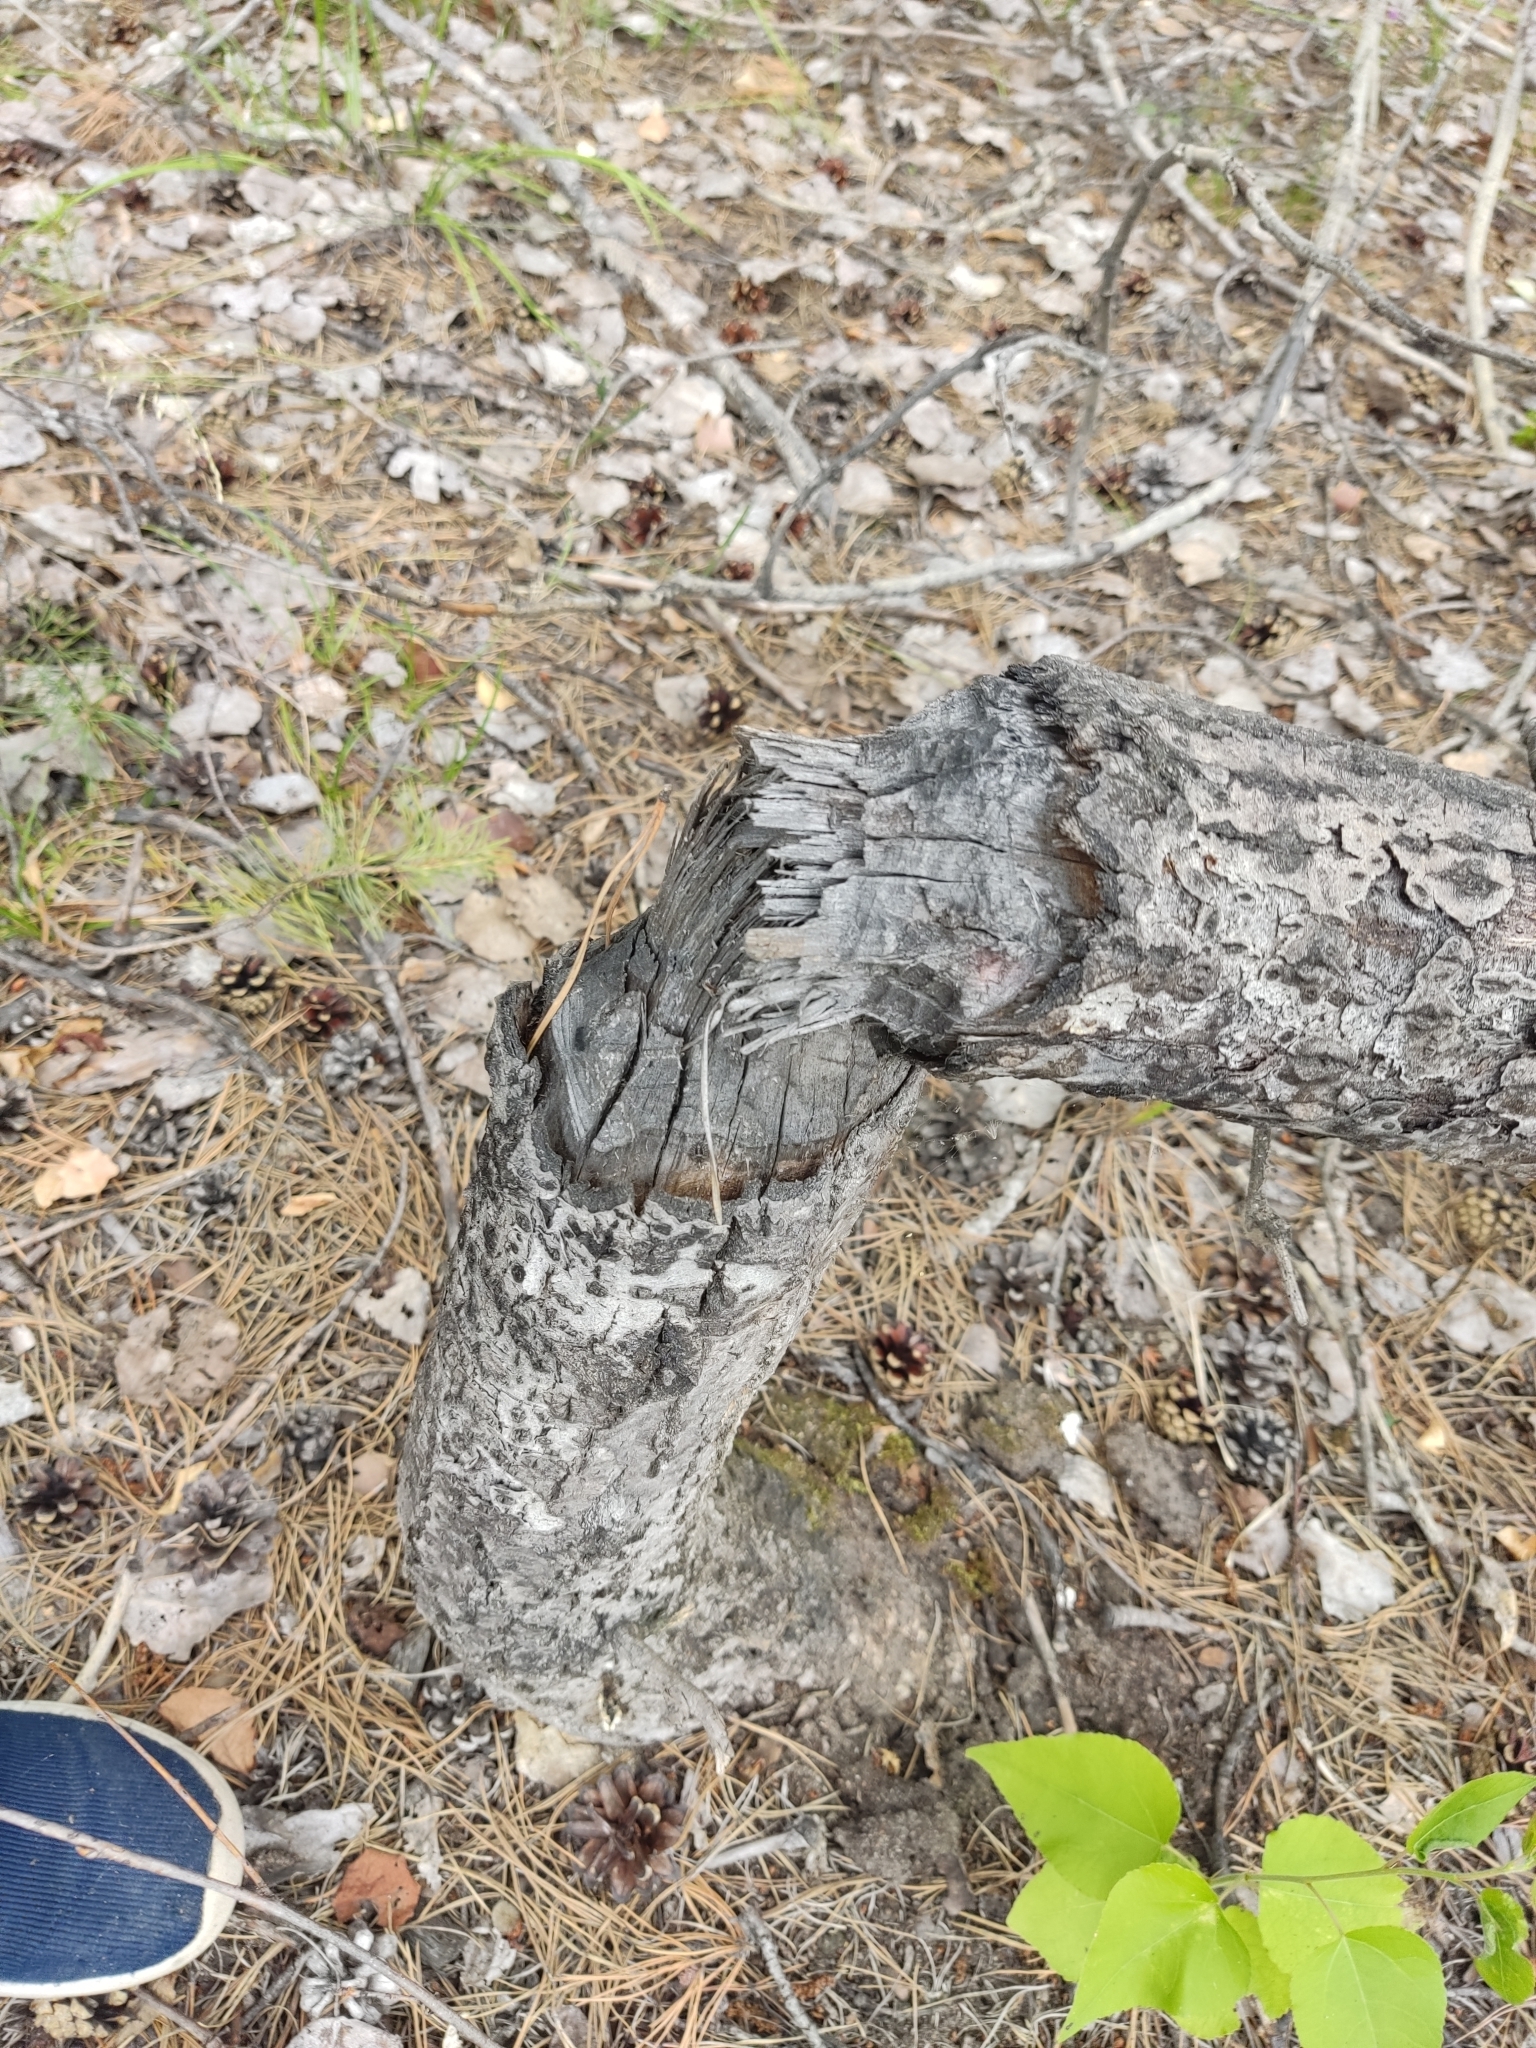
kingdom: Animalia
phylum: Chordata
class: Mammalia
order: Rodentia
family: Castoridae
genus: Castor
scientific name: Castor fiber
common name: Eurasian beaver
